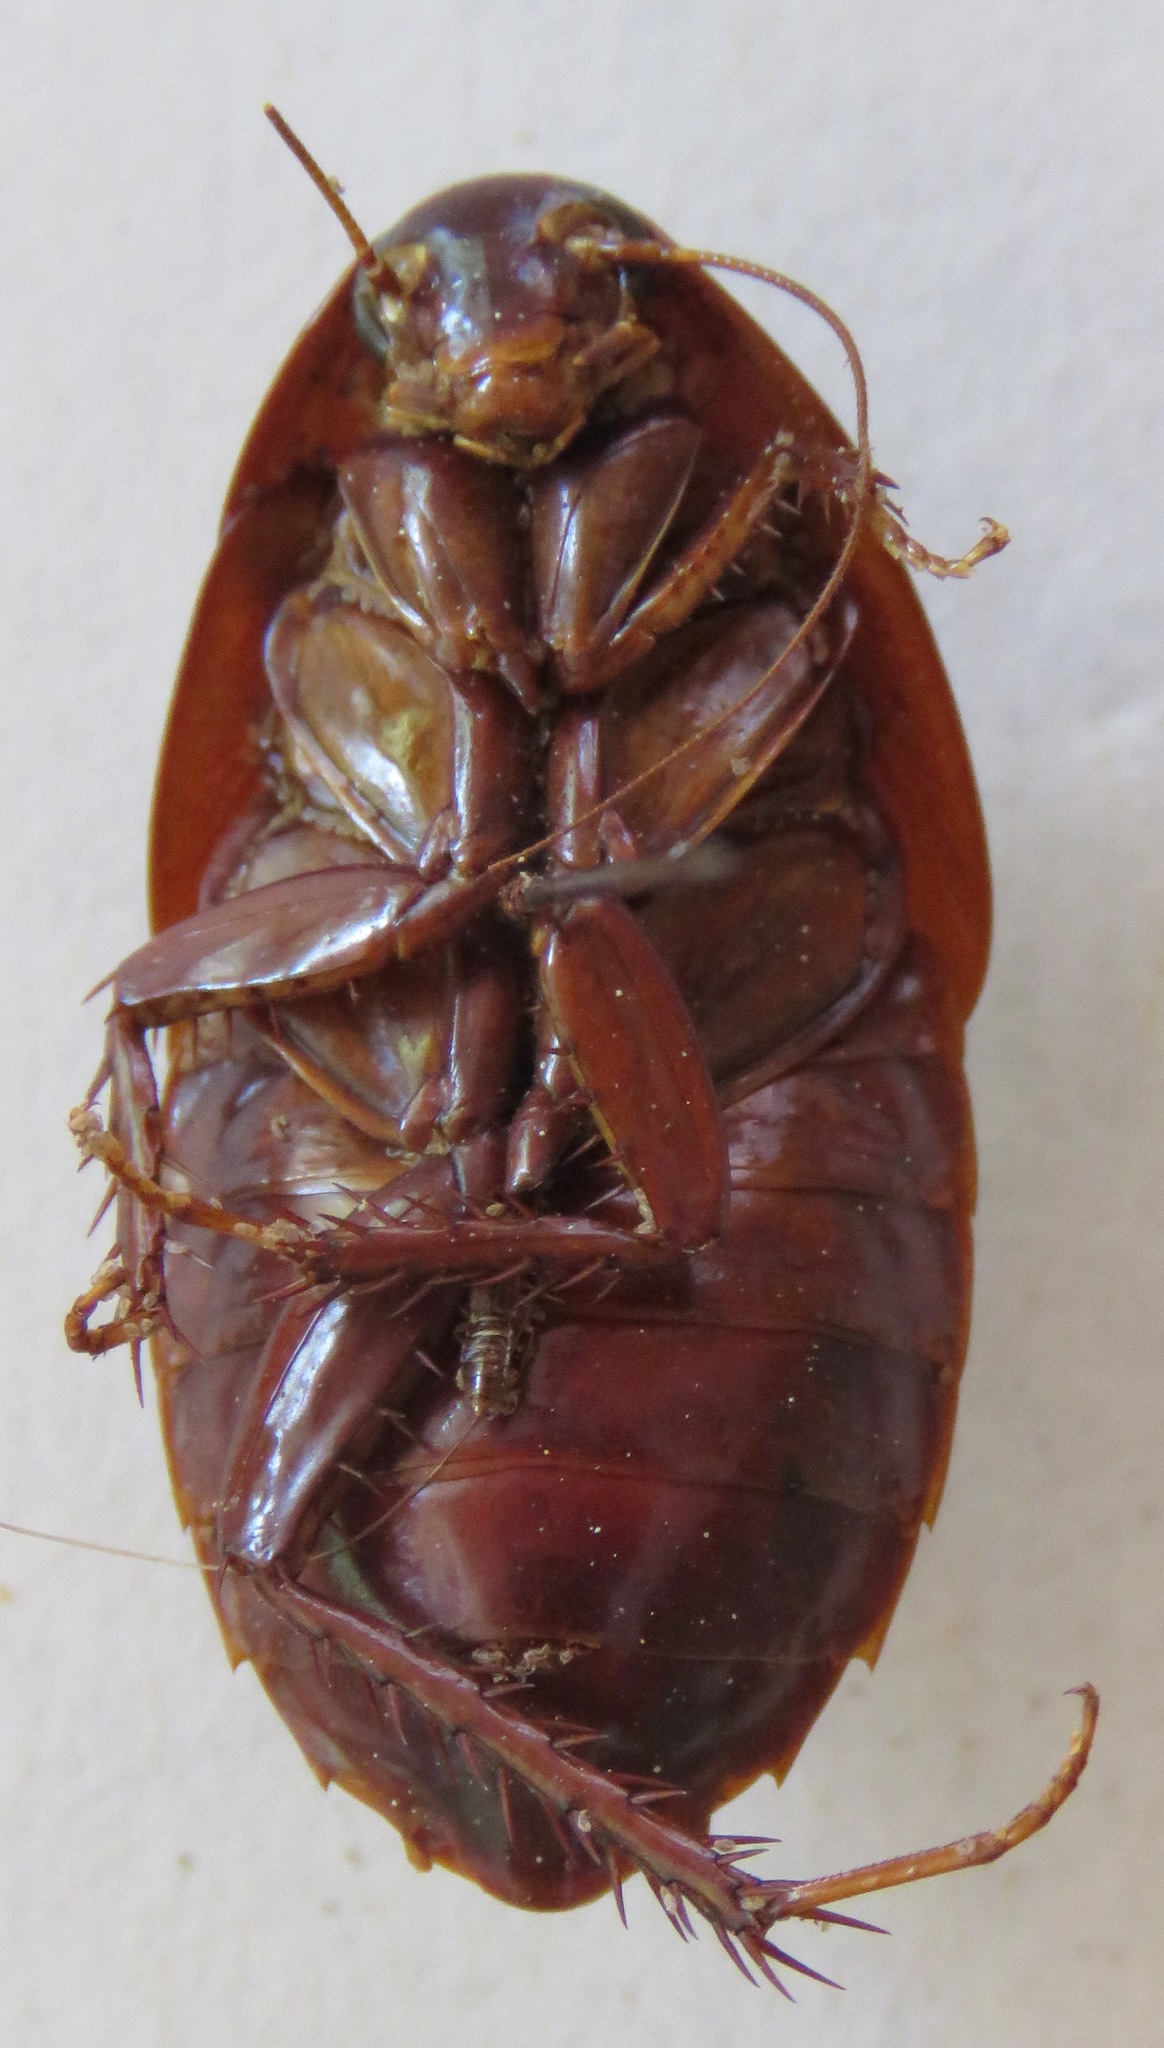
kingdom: Animalia
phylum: Arthropoda
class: Insecta
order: Blattodea
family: Blaberidae
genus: Audreia
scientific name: Audreia gatunae
